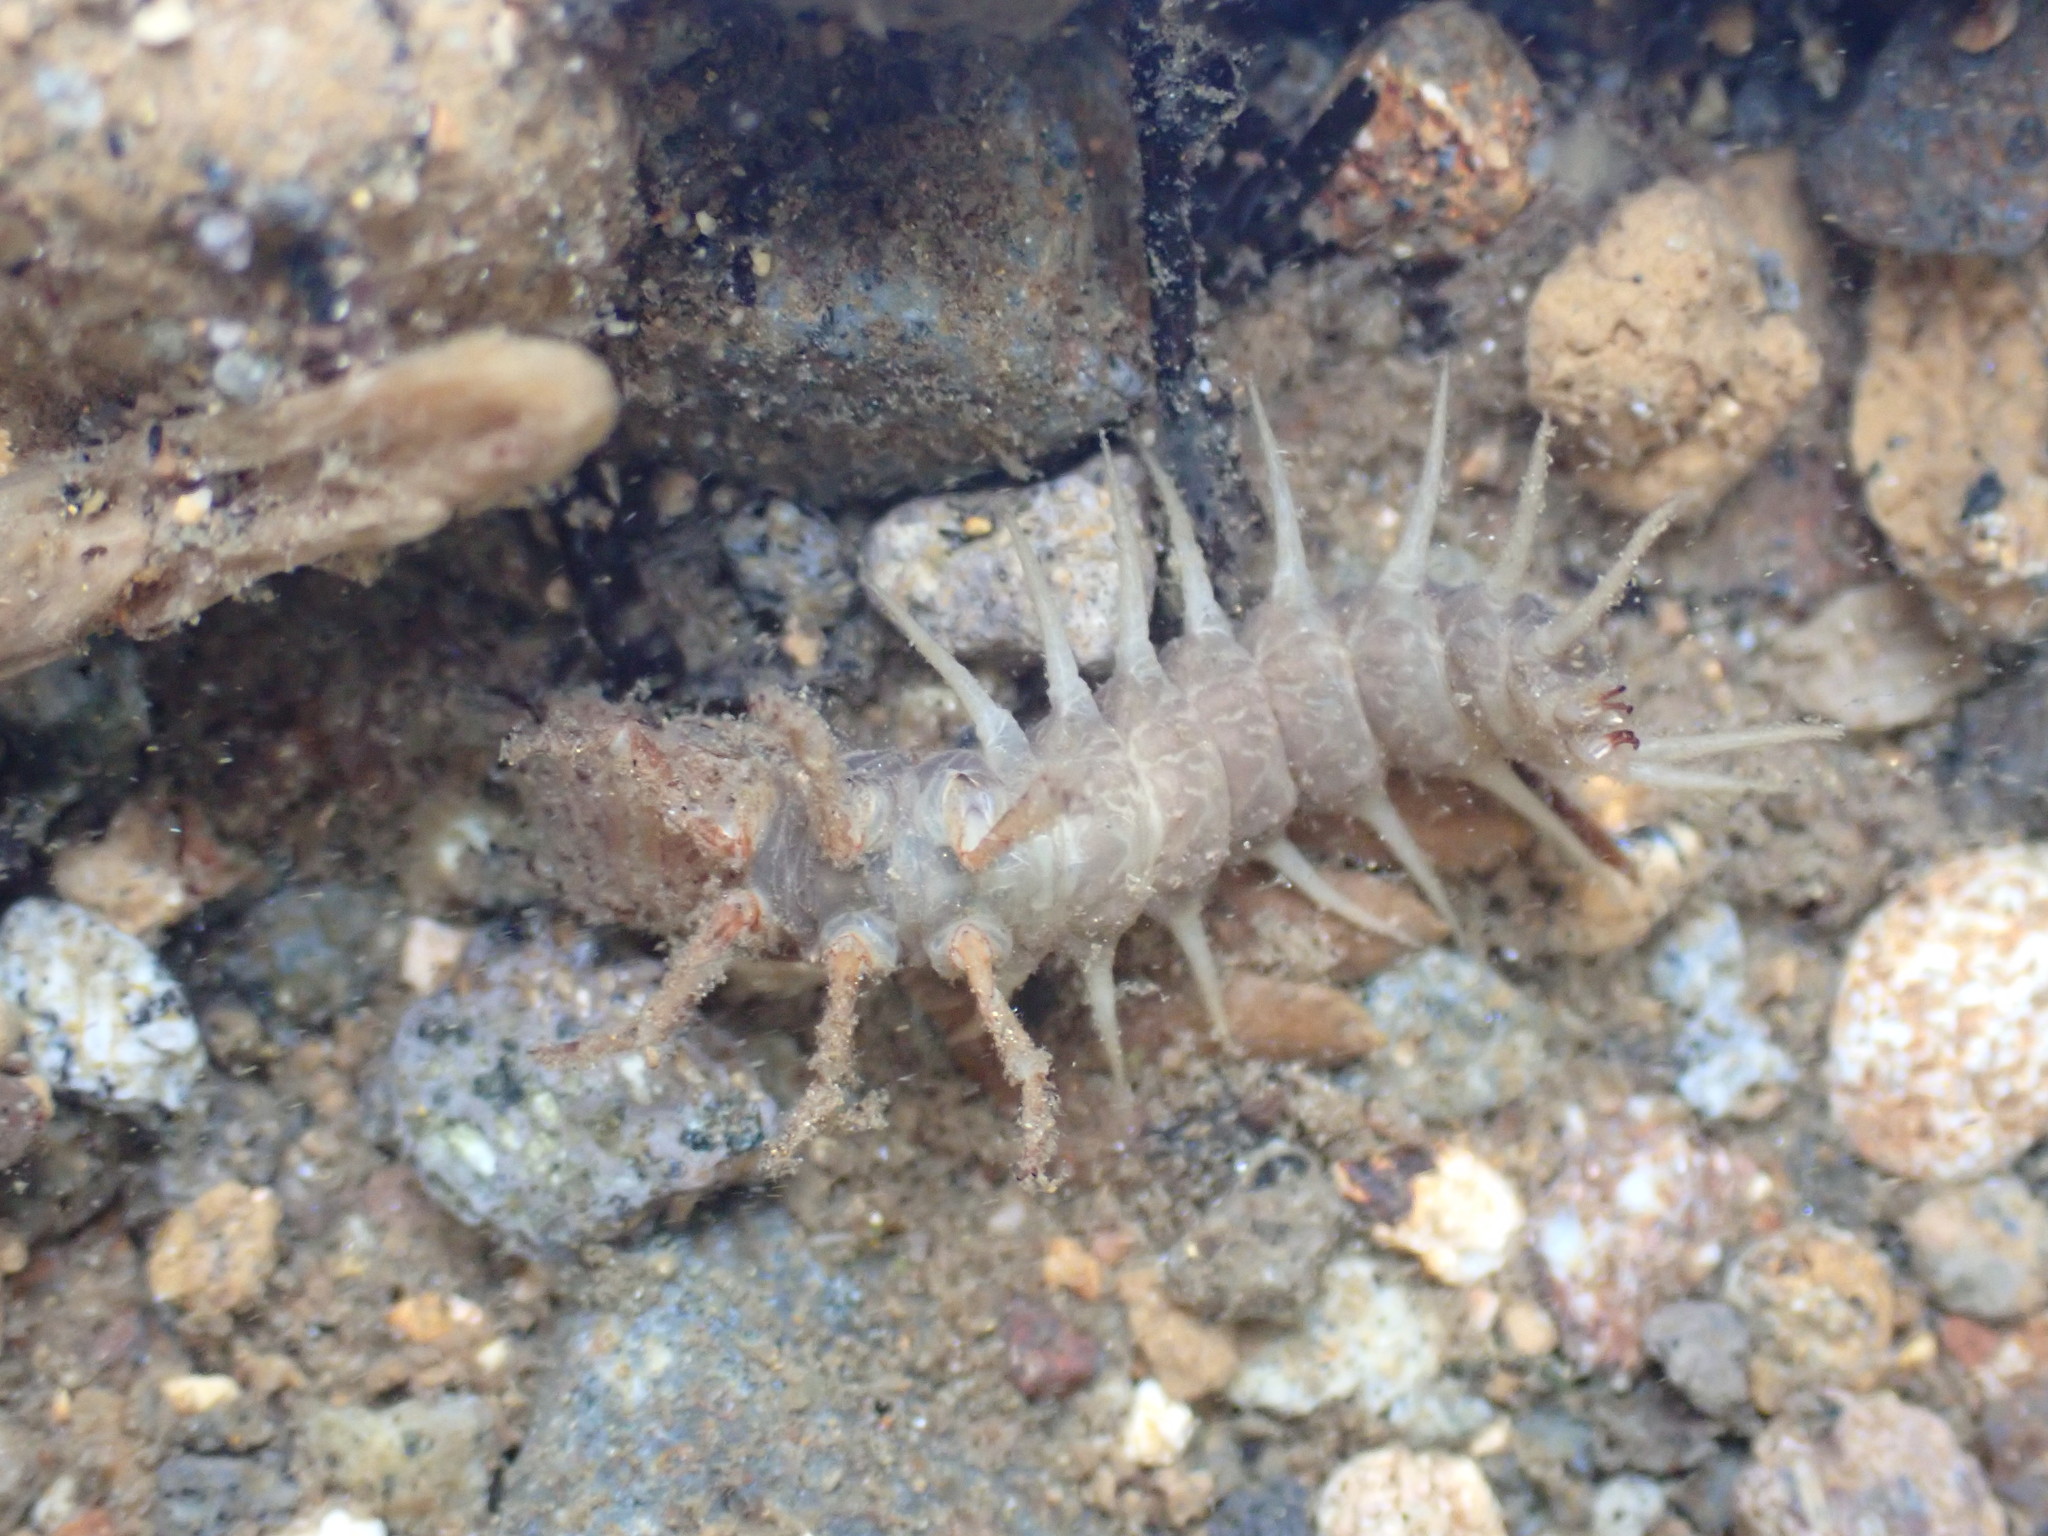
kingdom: Animalia
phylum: Arthropoda
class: Insecta
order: Megaloptera
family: Corydalidae
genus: Archichauliodes
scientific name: Archichauliodes diversus
